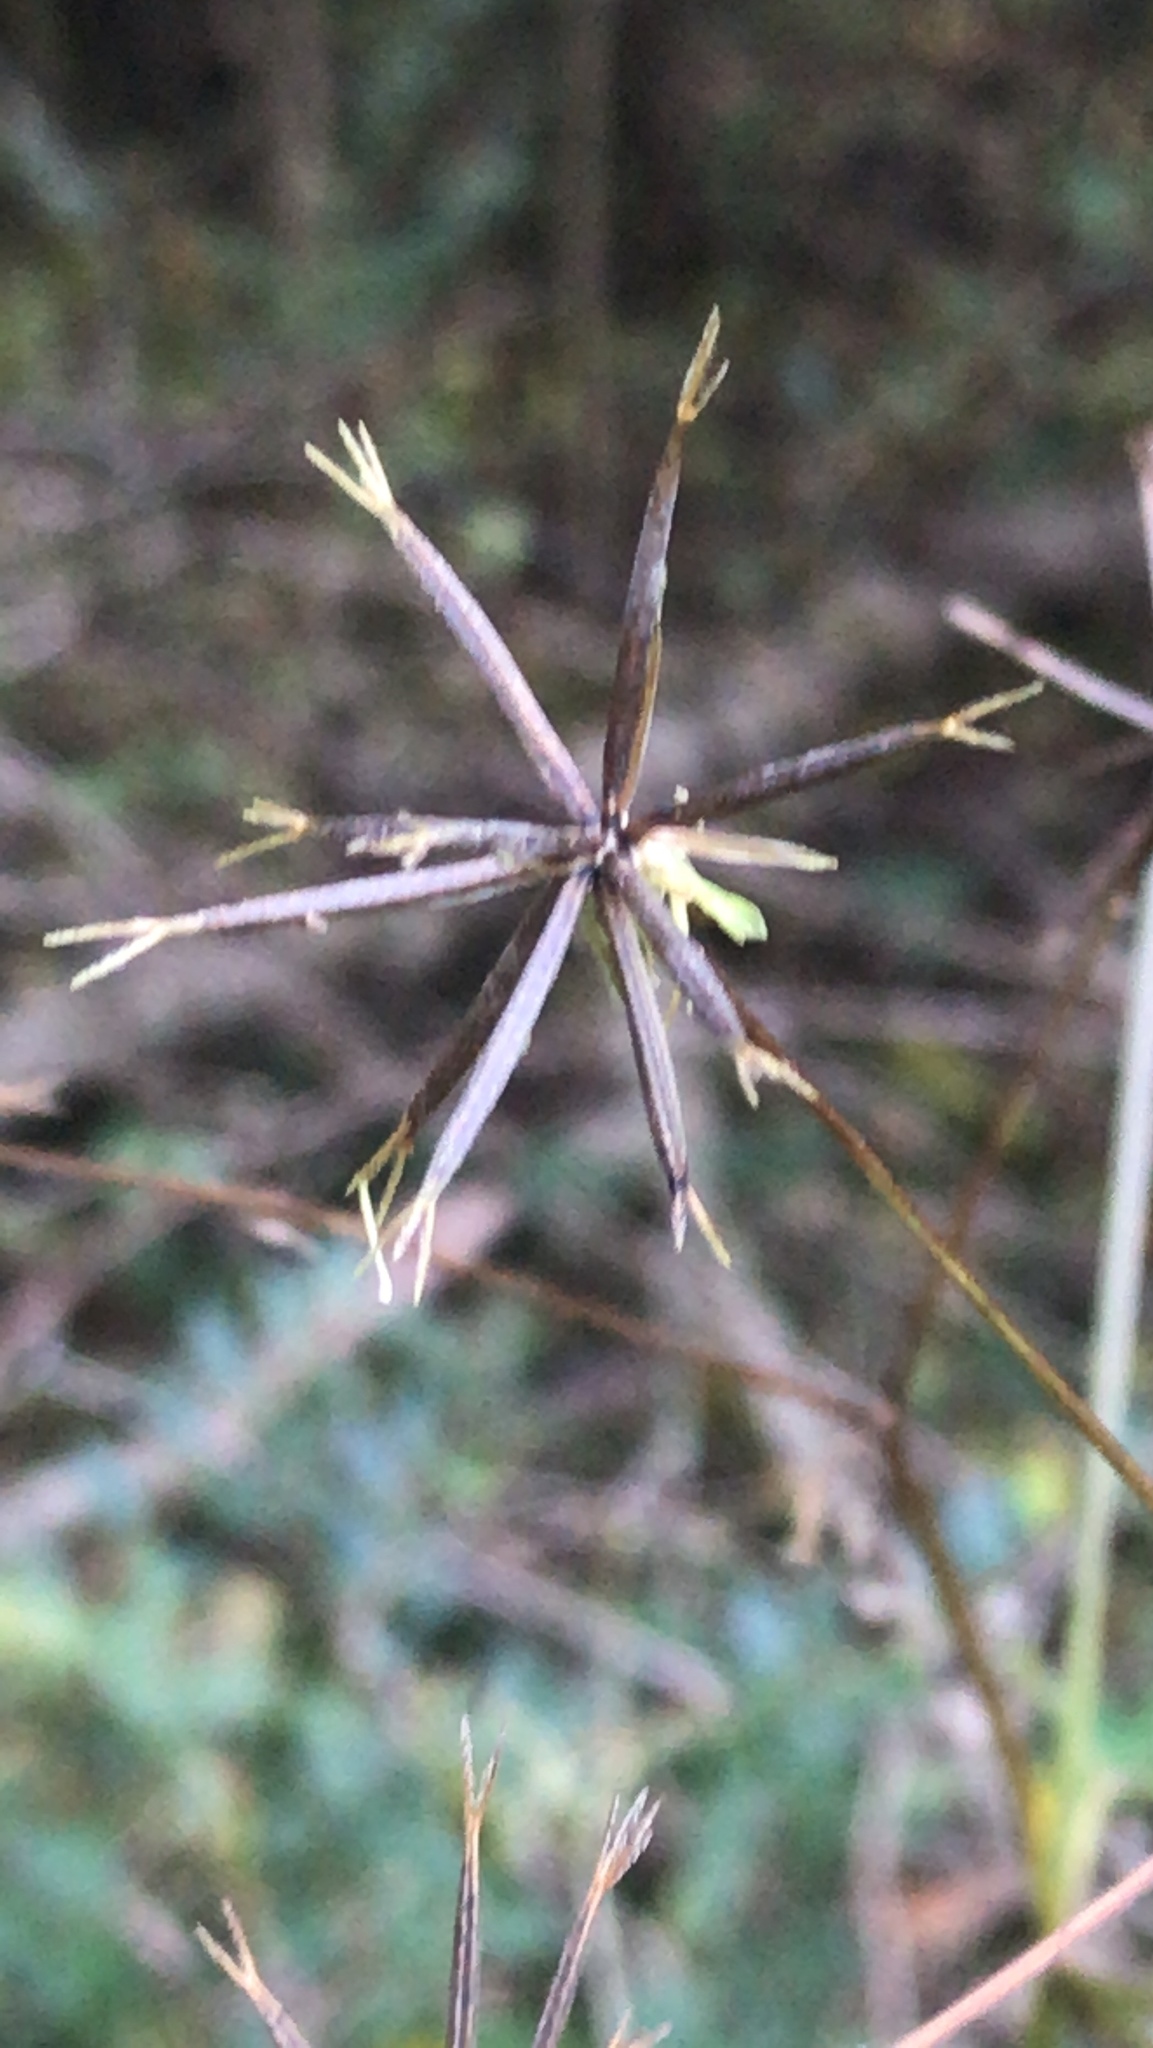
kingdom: Plantae
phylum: Tracheophyta
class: Magnoliopsida
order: Asterales
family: Asteraceae
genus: Bidens
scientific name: Bidens bipinnata
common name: Spanish-needles
